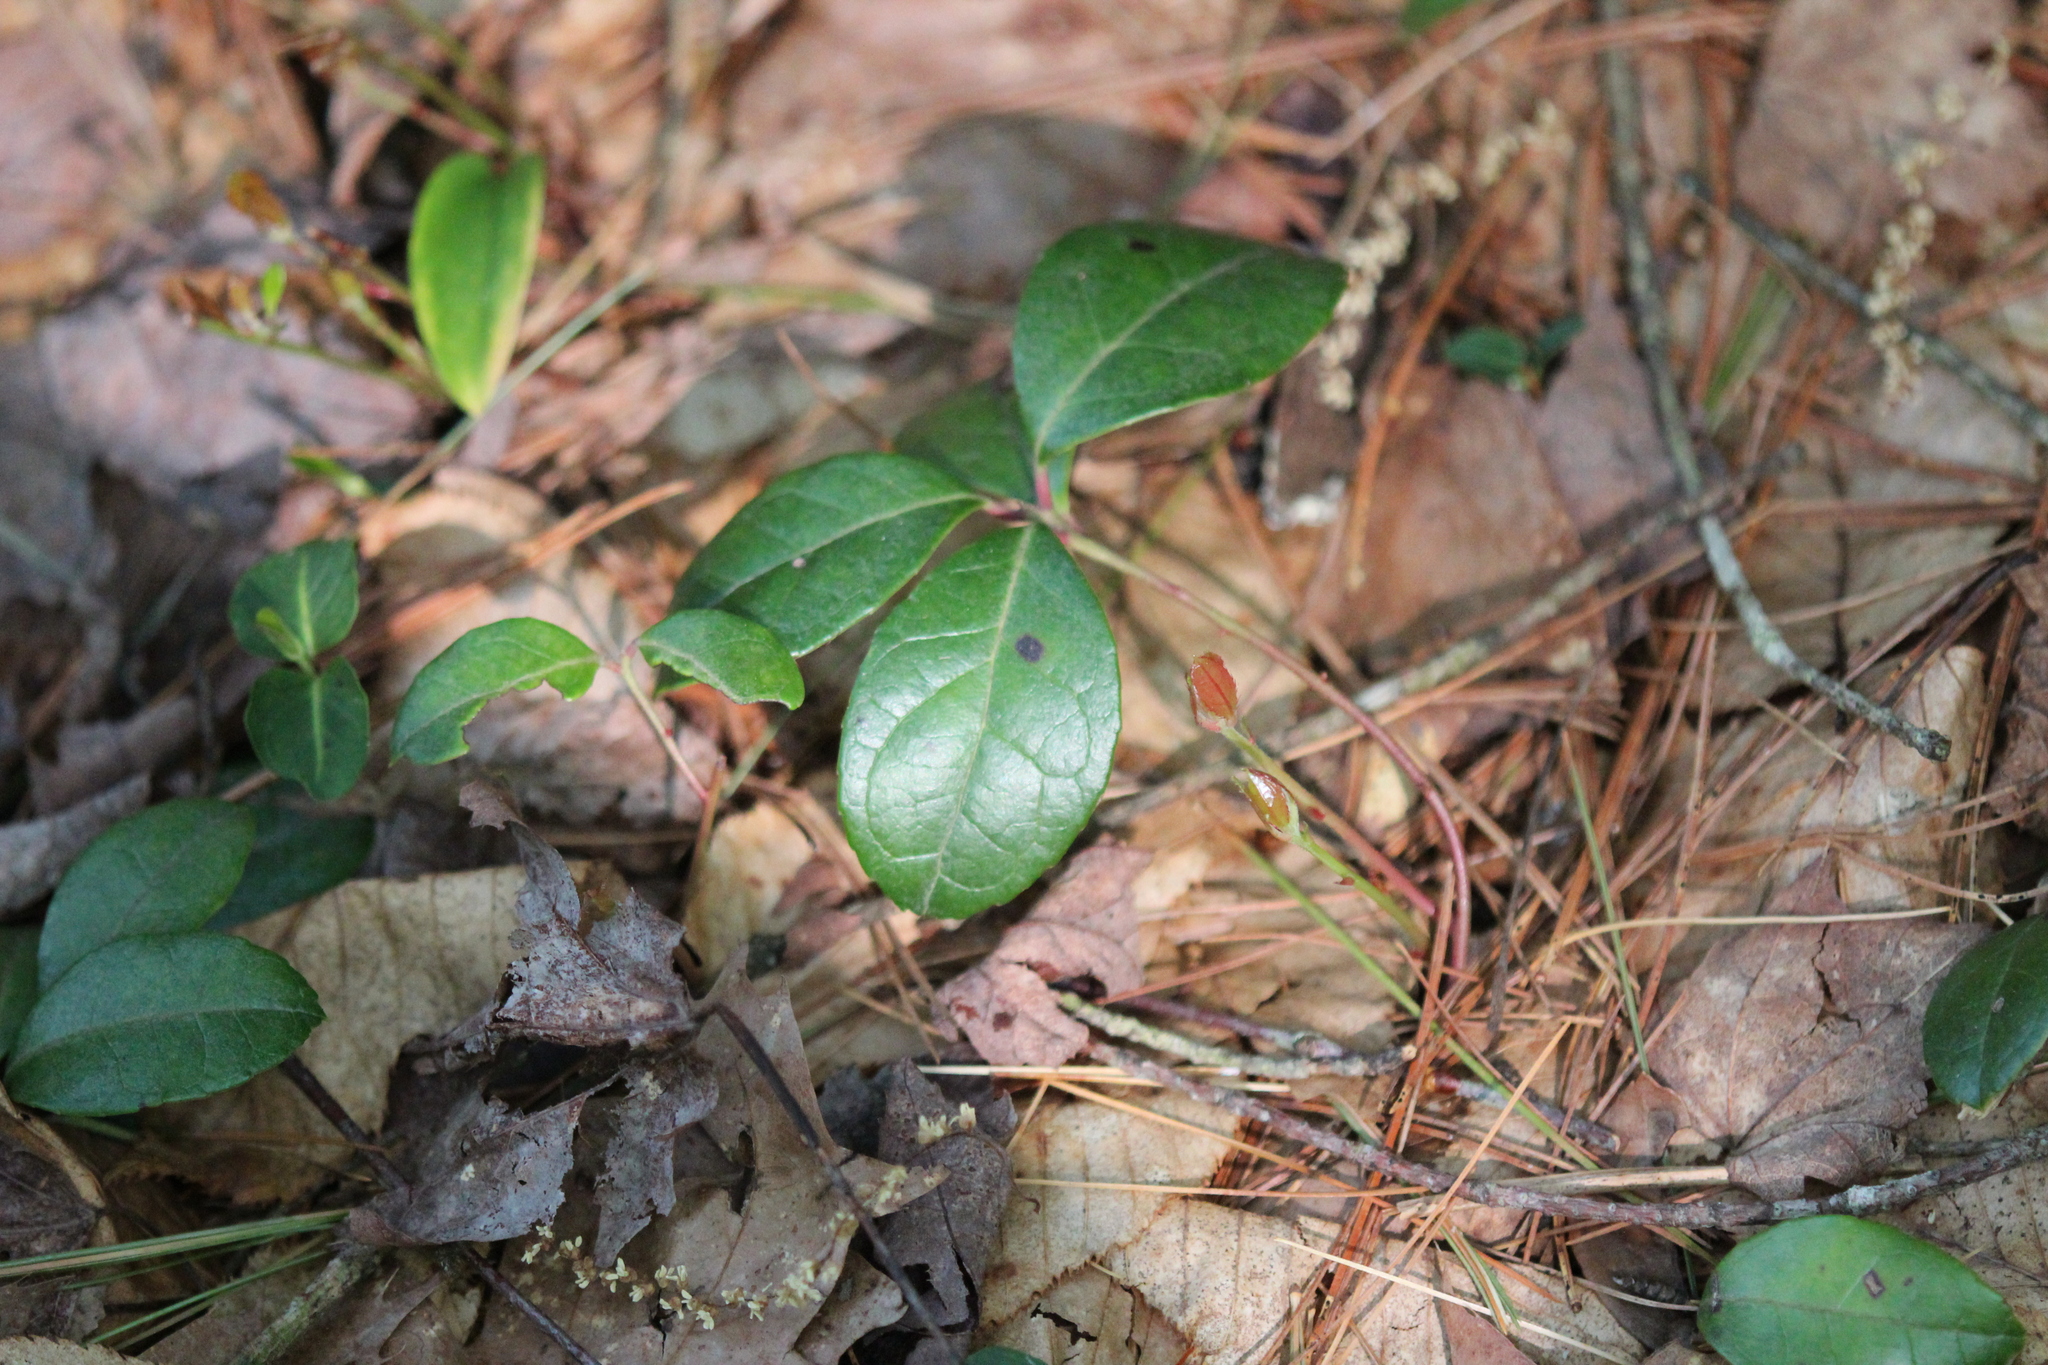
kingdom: Plantae
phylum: Tracheophyta
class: Magnoliopsida
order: Ericales
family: Ericaceae
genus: Gaultheria
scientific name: Gaultheria procumbens
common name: Checkerberry
